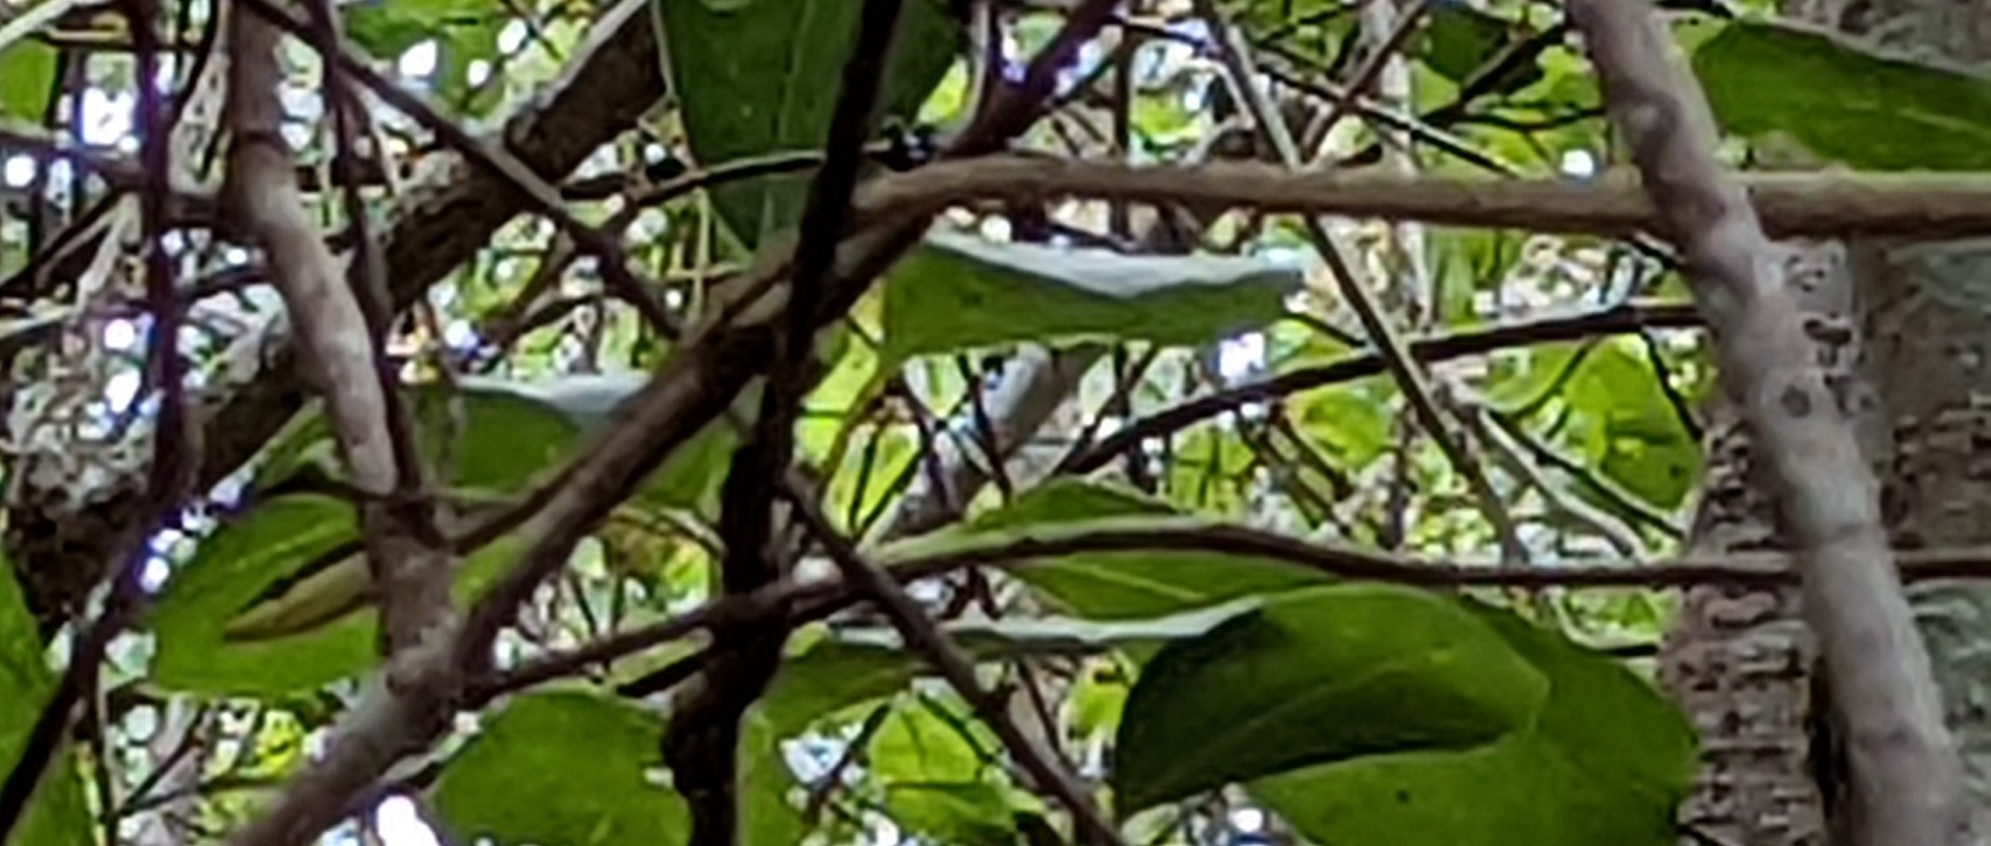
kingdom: Animalia
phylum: Chordata
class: Squamata
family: Colubridae
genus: Oxybelis
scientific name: Oxybelis potosiensis
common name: Gulf coast vine snake
